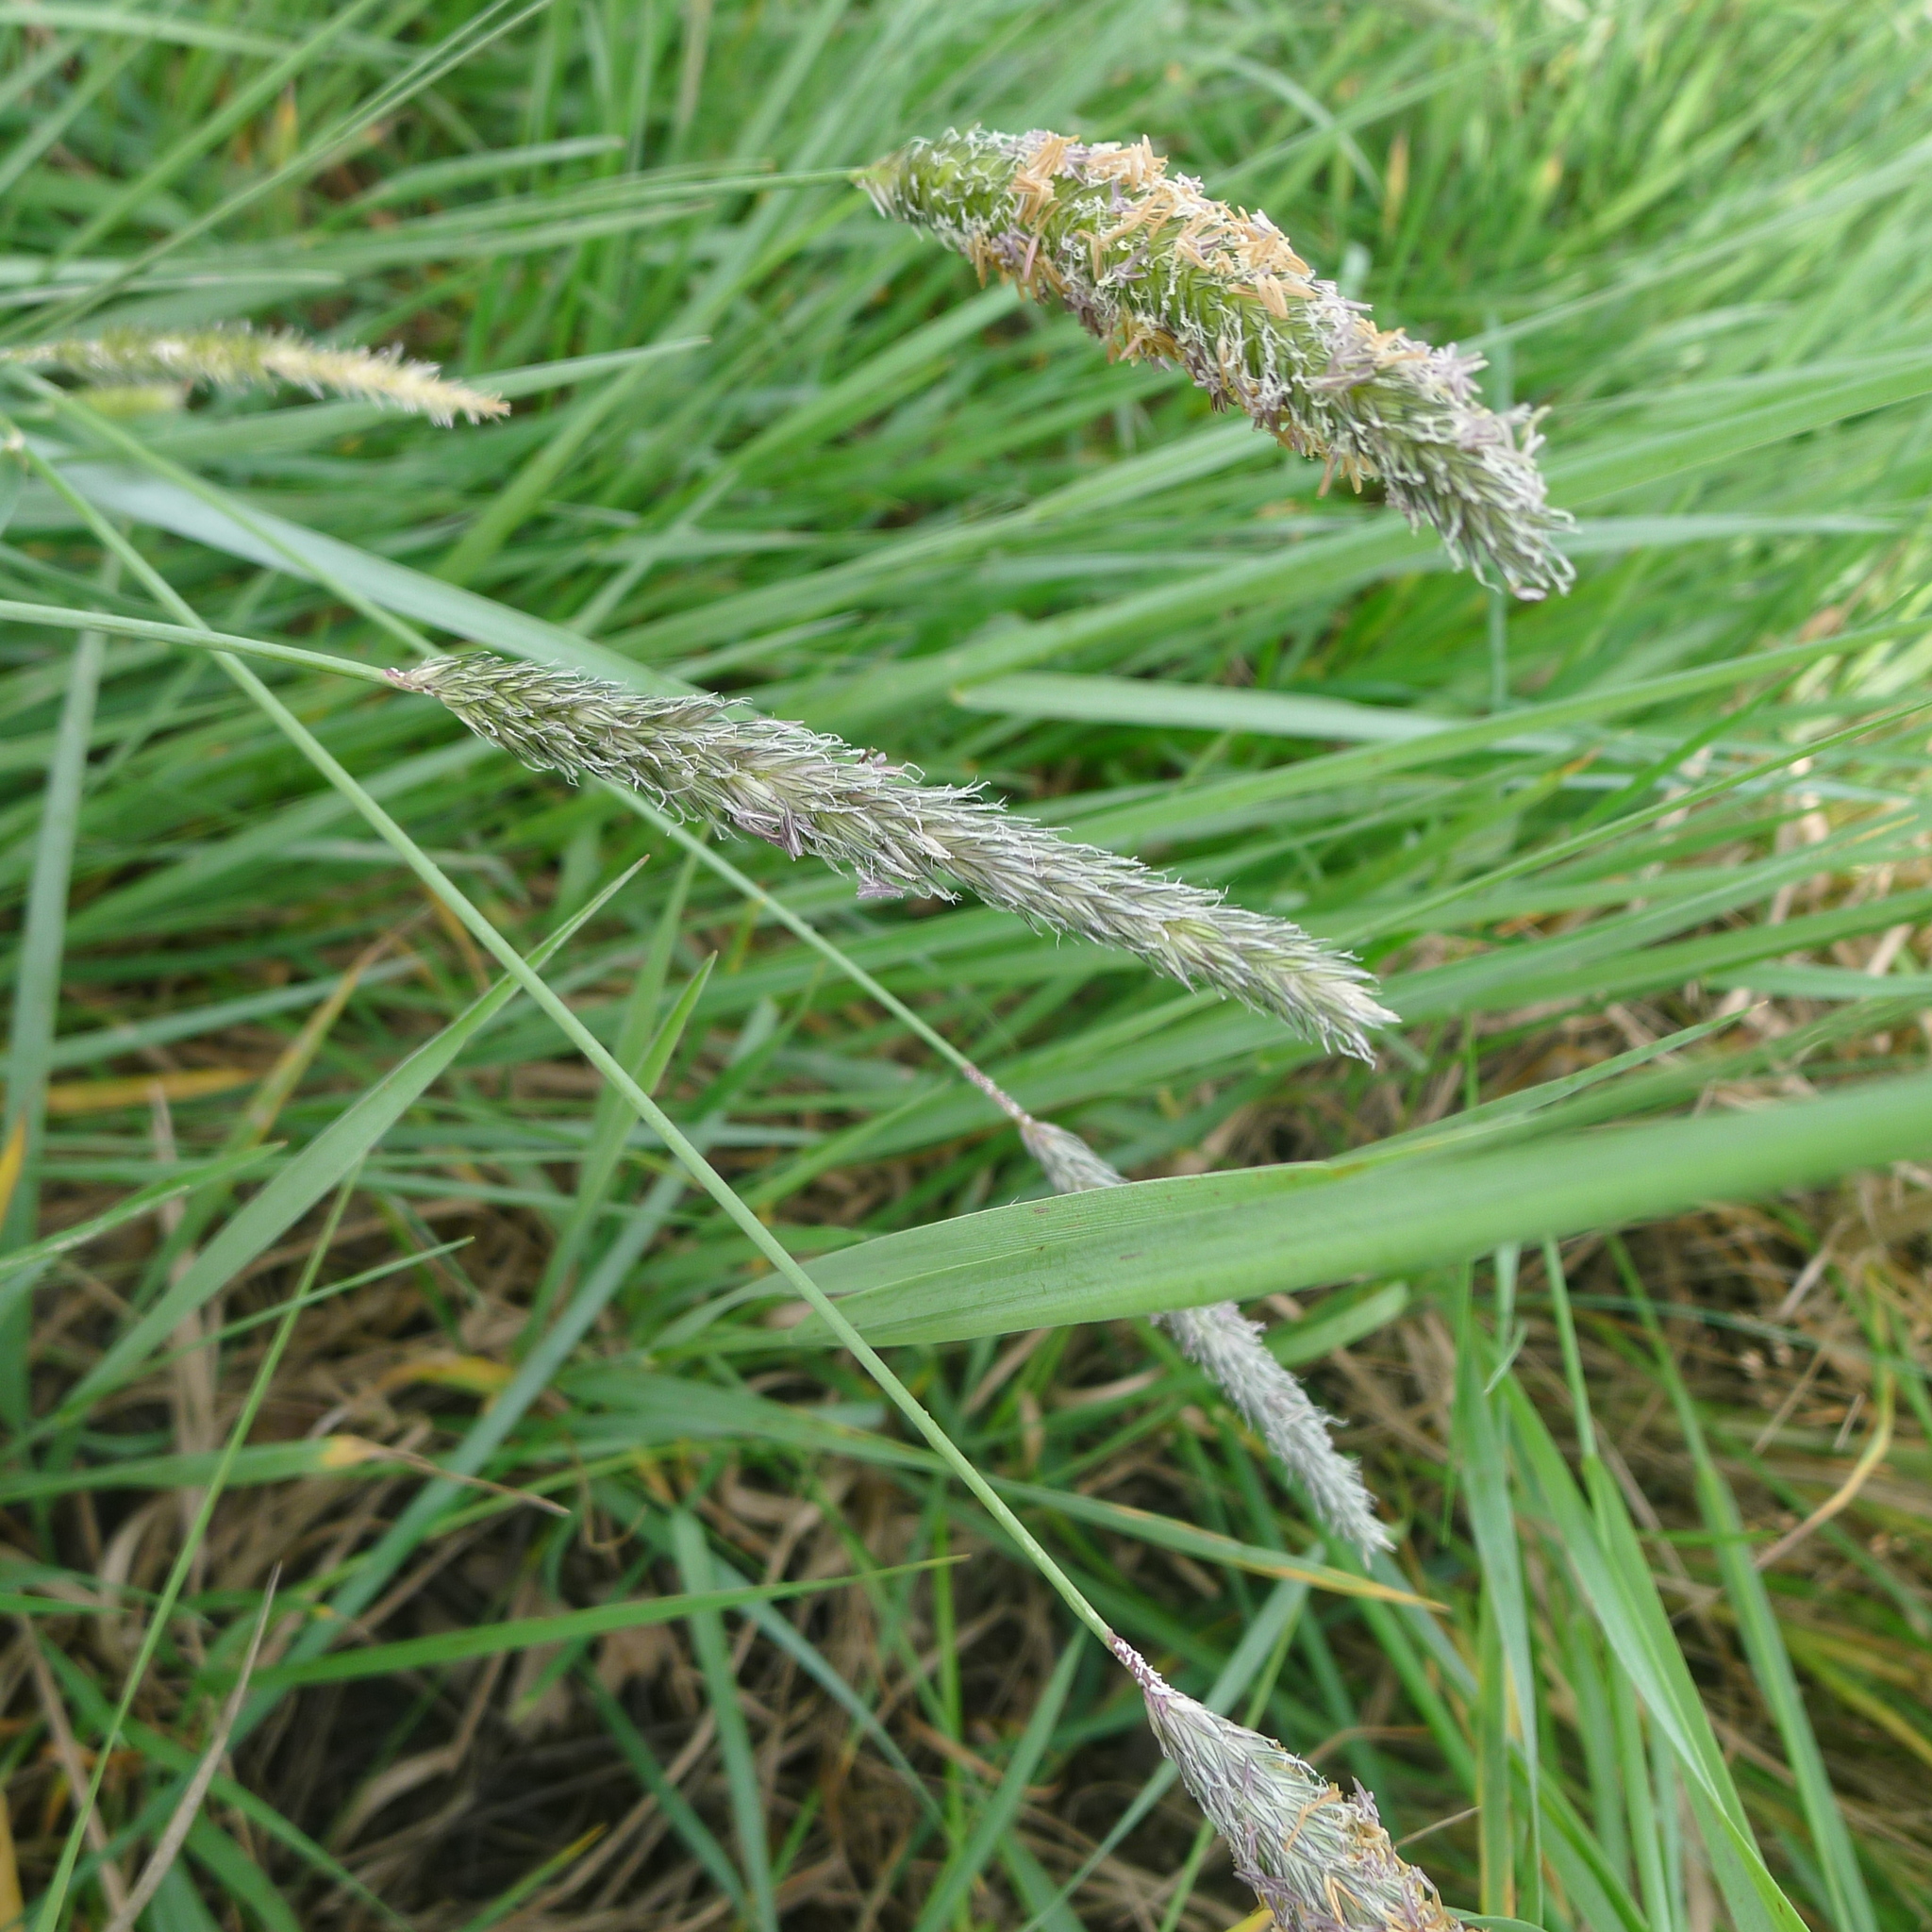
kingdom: Plantae
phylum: Tracheophyta
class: Liliopsida
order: Poales
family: Poaceae
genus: Alopecurus
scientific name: Alopecurus pratensis
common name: Meadow foxtail
